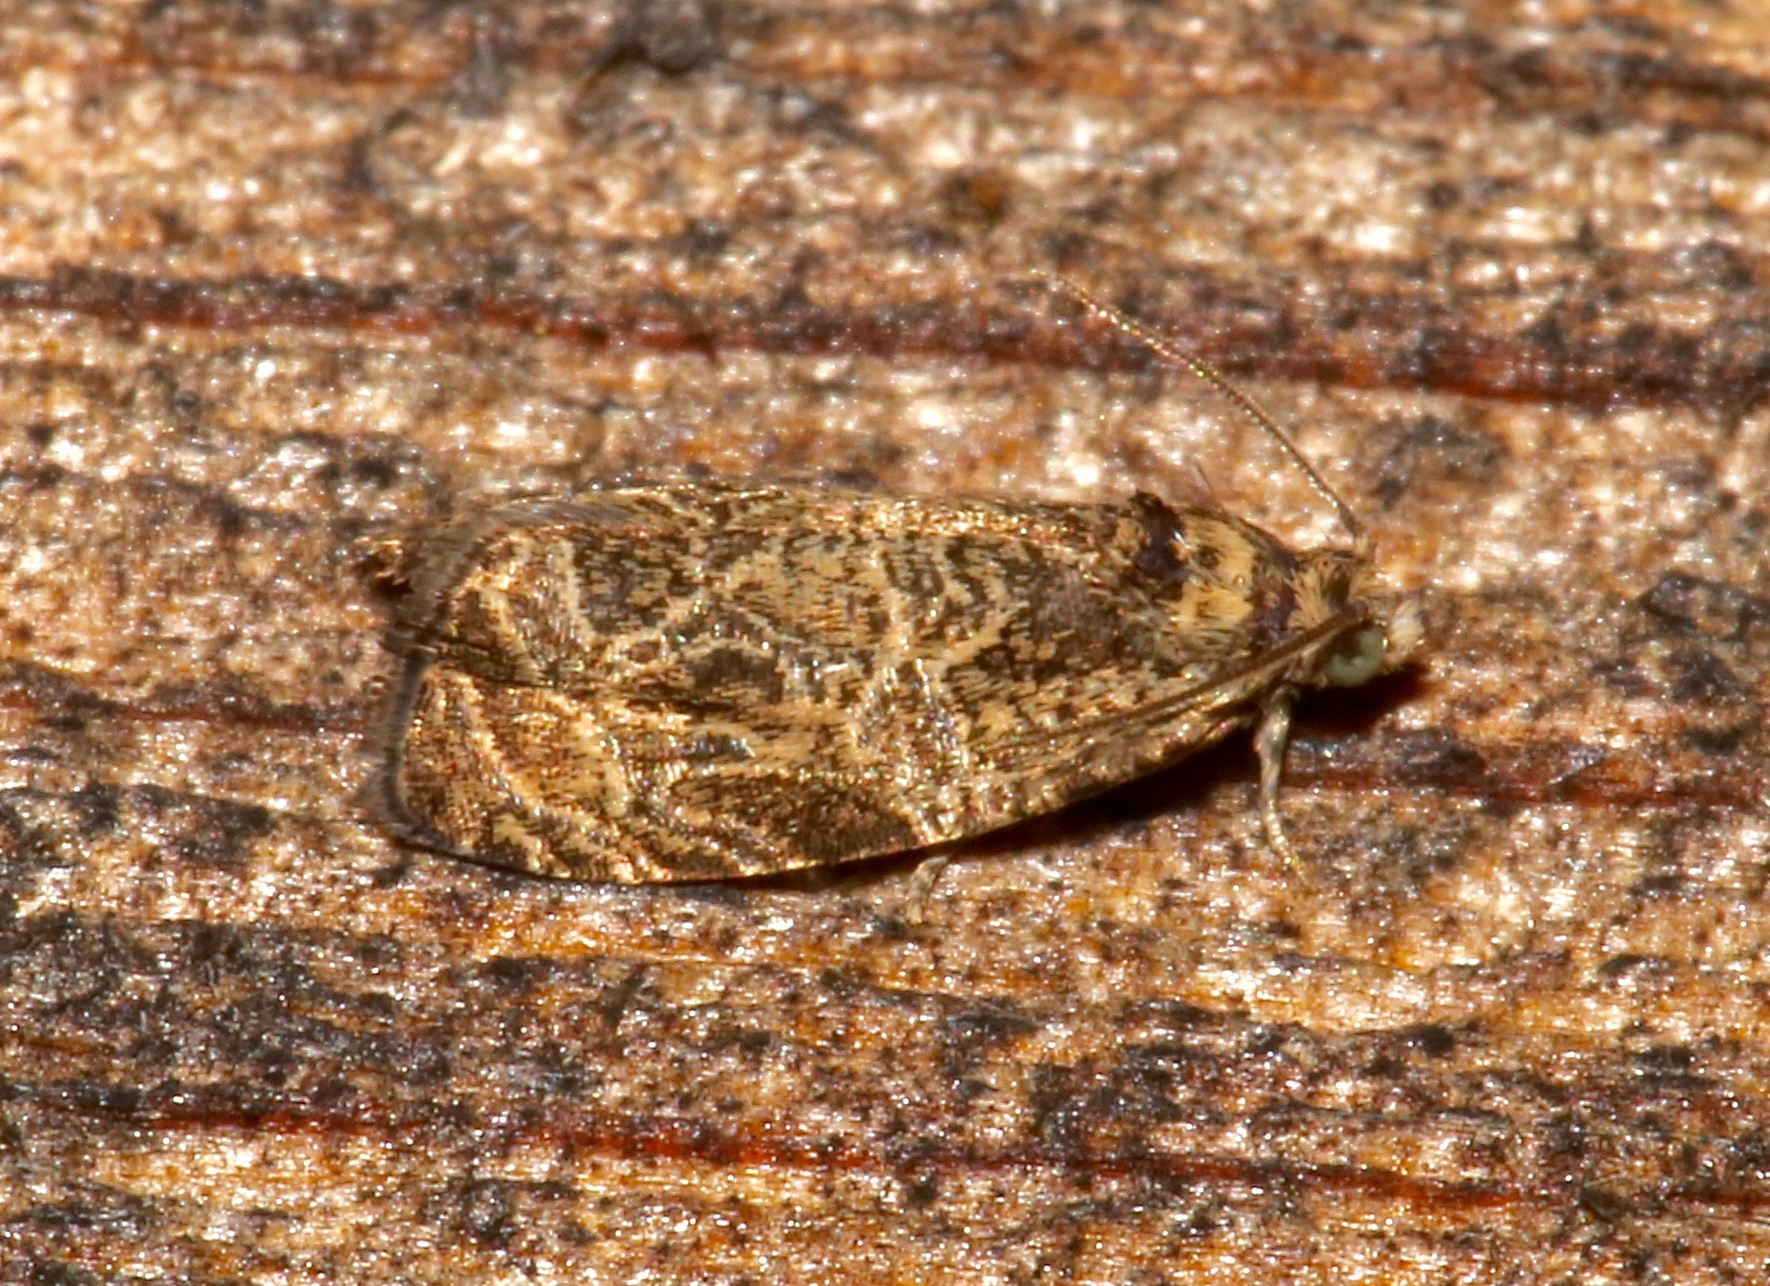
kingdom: Animalia
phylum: Arthropoda
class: Insecta
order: Lepidoptera
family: Tortricidae
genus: Olethreutes
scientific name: Olethreutes furfuranum
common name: Woolly-backed moth
